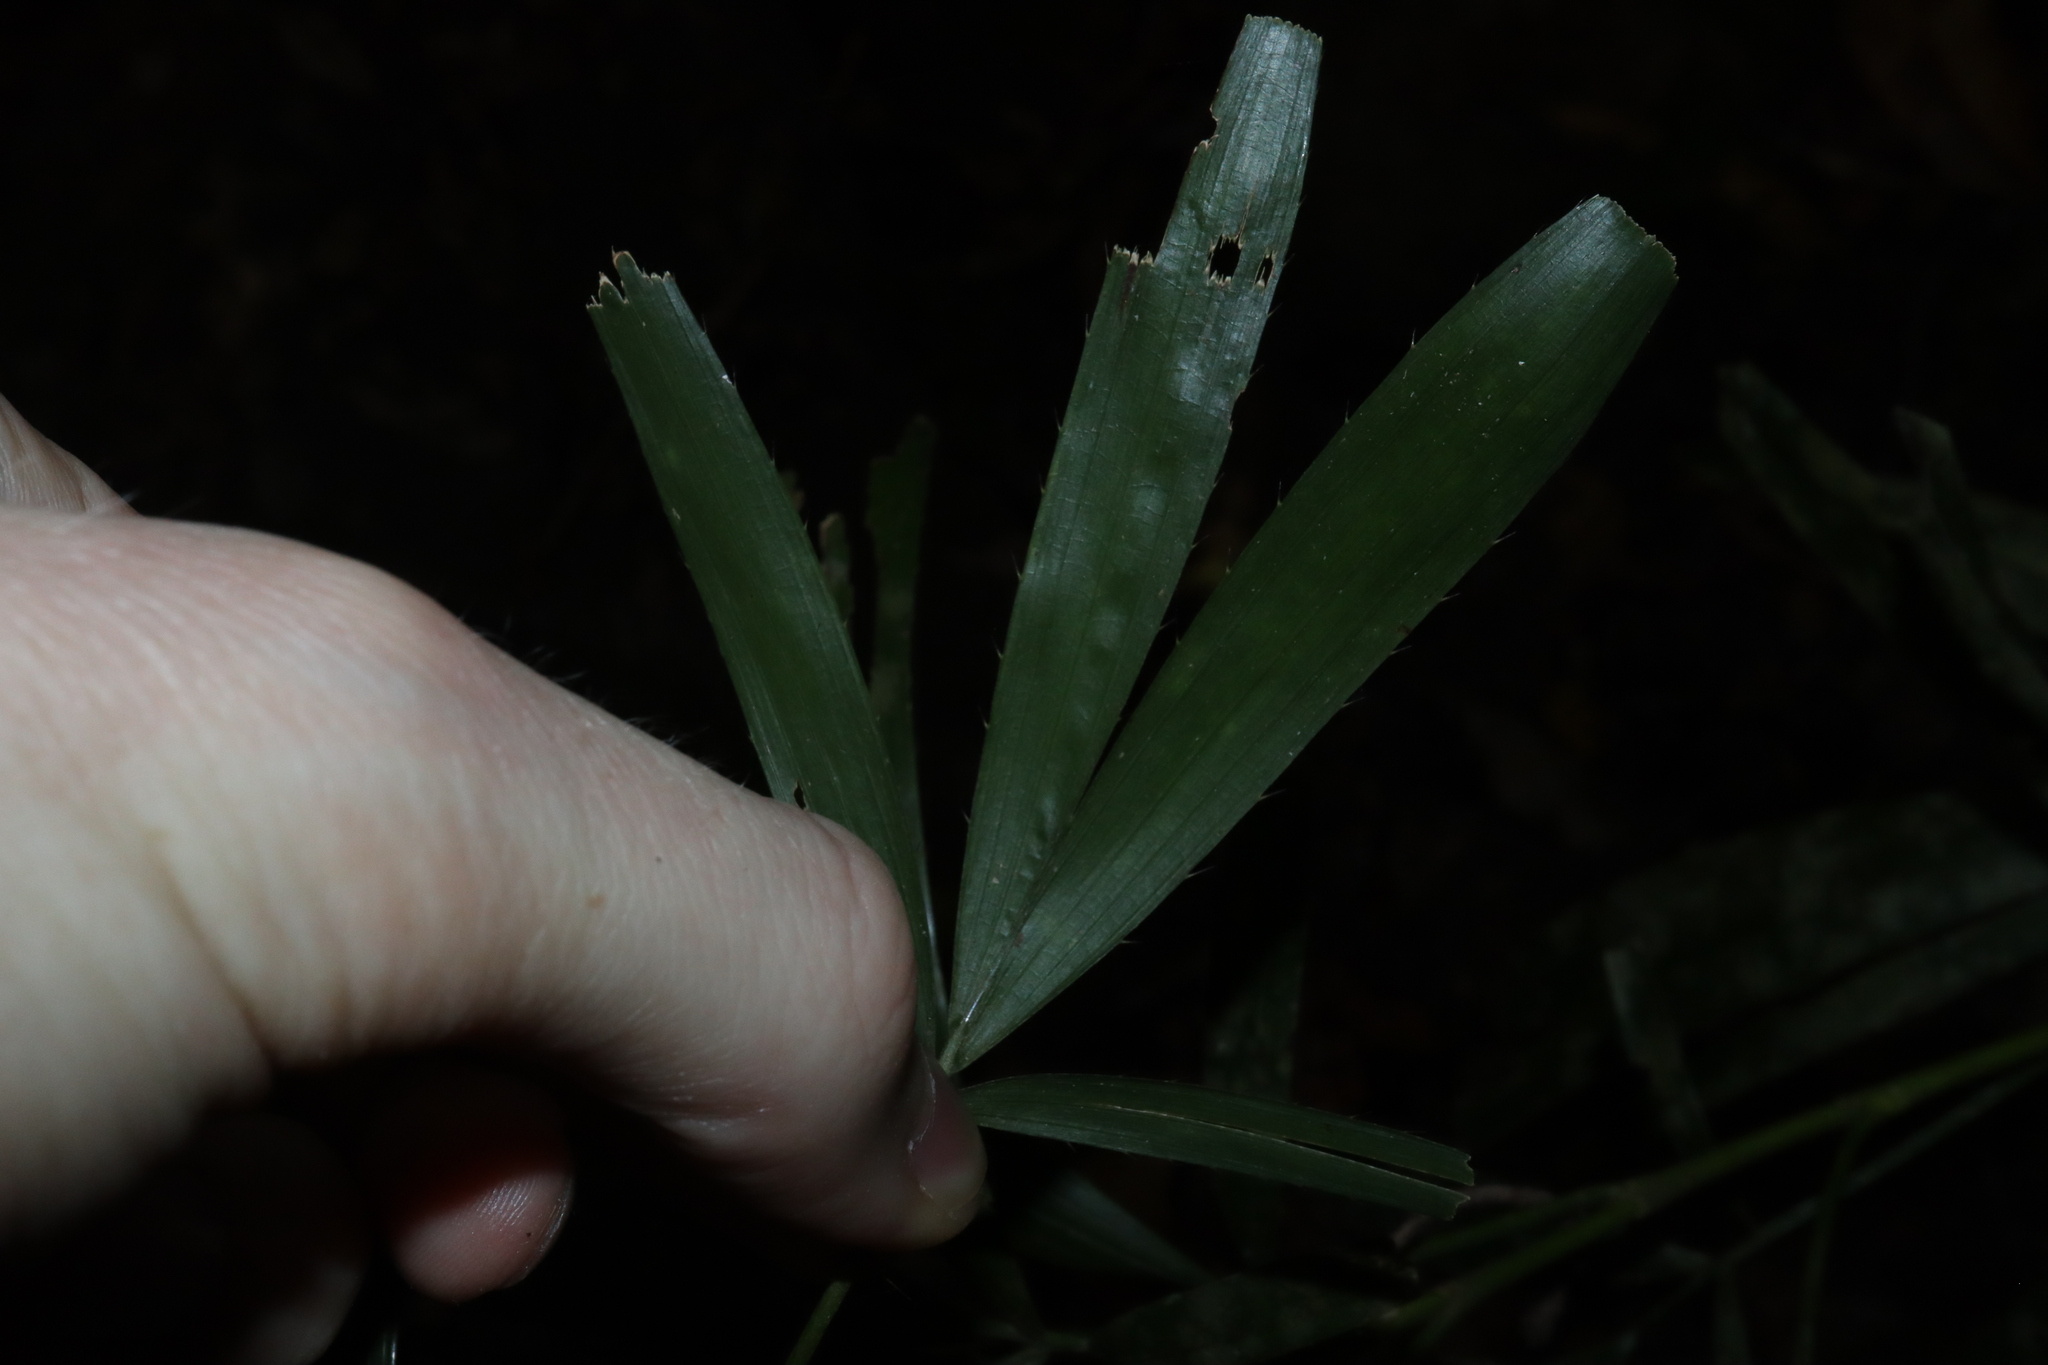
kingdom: Plantae
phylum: Tracheophyta
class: Liliopsida
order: Arecales
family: Arecaceae
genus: Calamus
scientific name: Calamus caryotoides
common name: Fishtail lawyer cane
